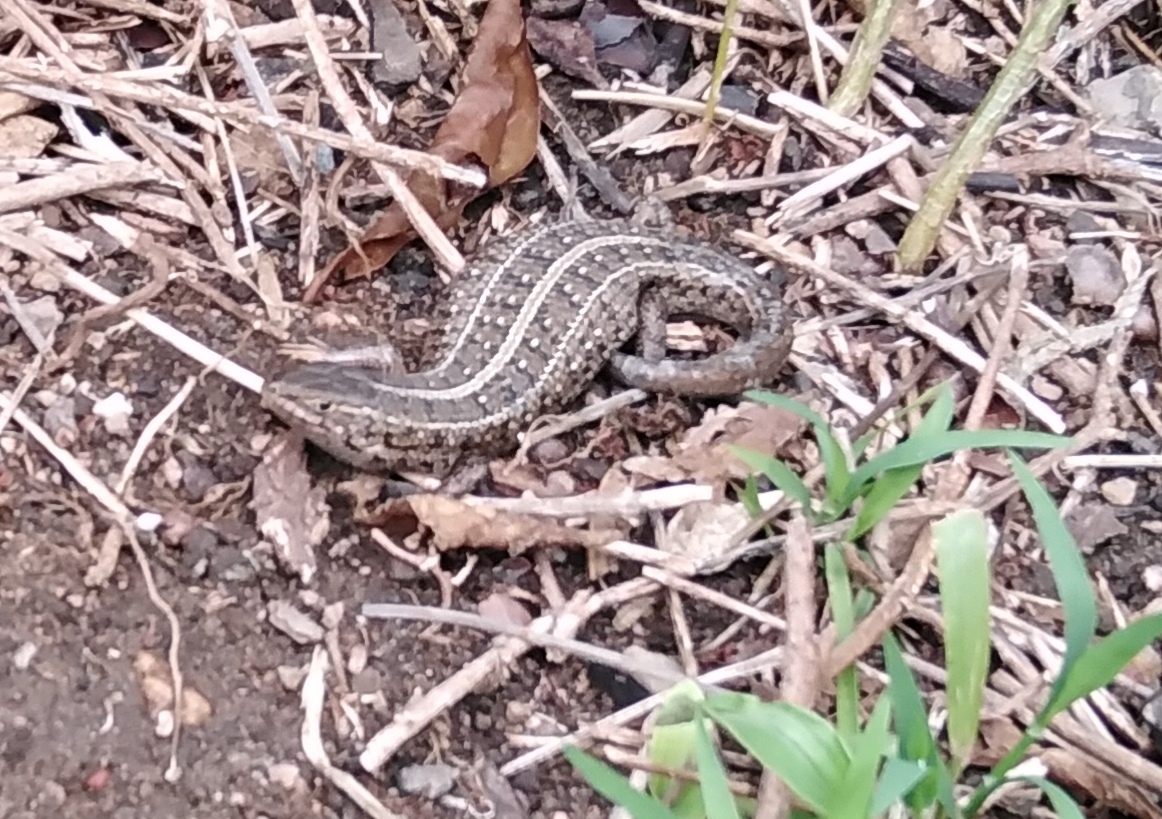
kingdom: Animalia
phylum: Chordata
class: Squamata
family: Scincidae
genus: Trachylepis
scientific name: Trachylepis capensis
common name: Cape skink
